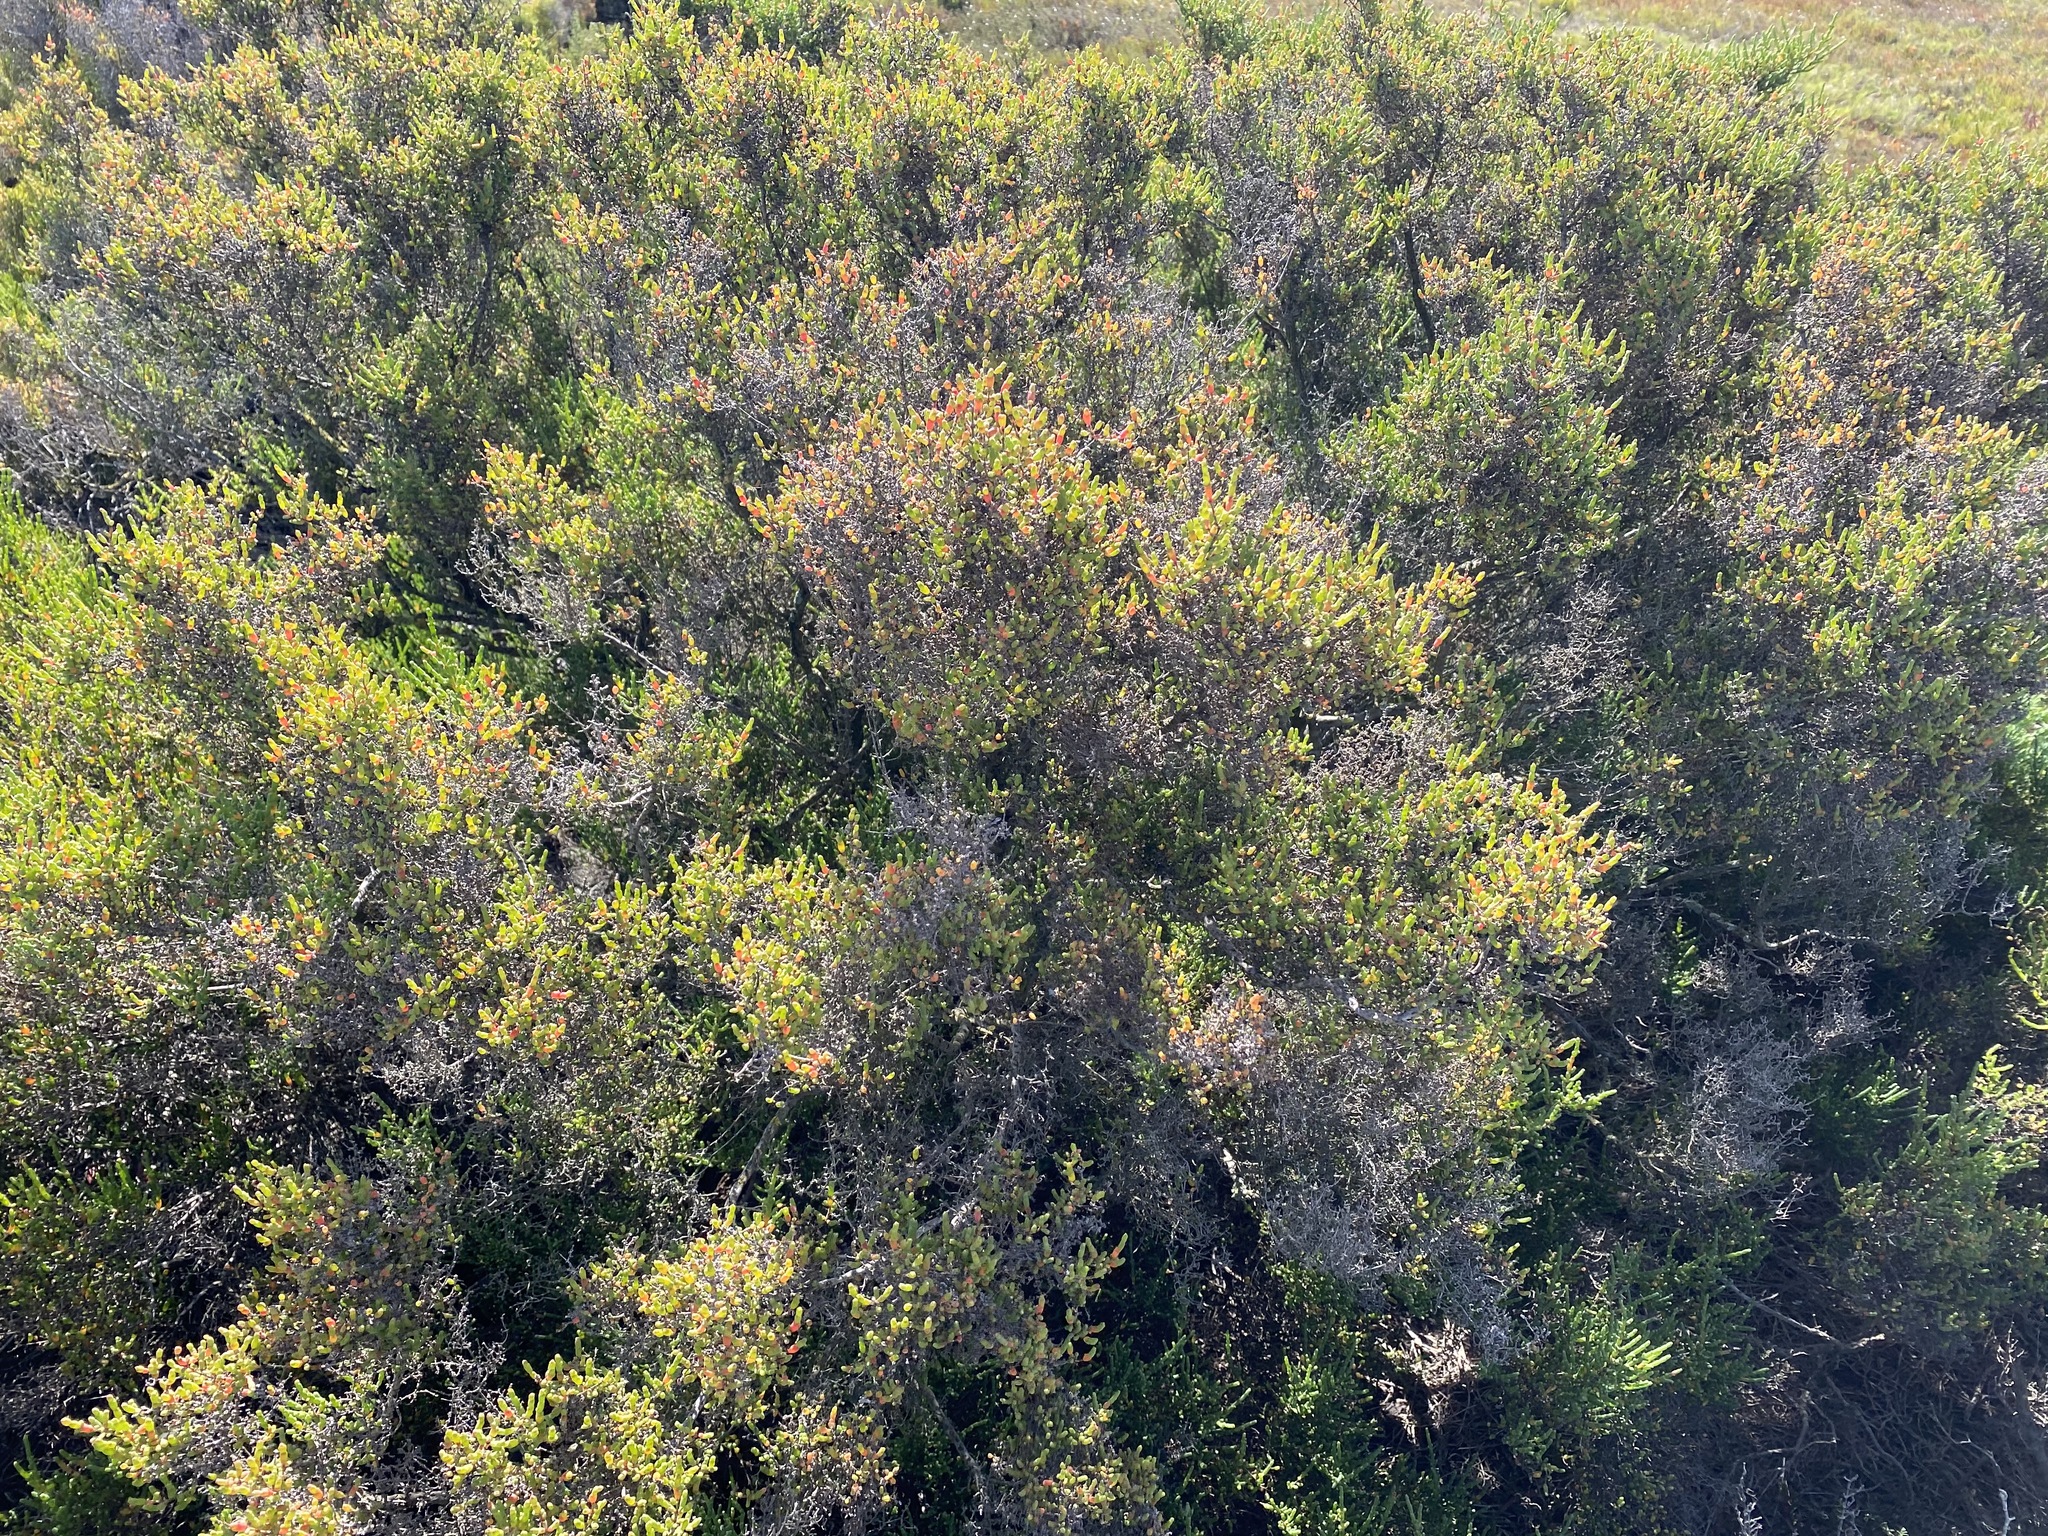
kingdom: Plantae
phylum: Tracheophyta
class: Magnoliopsida
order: Caryophyllales
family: Amaranthaceae
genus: Tecticornia
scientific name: Tecticornia arbuscula
